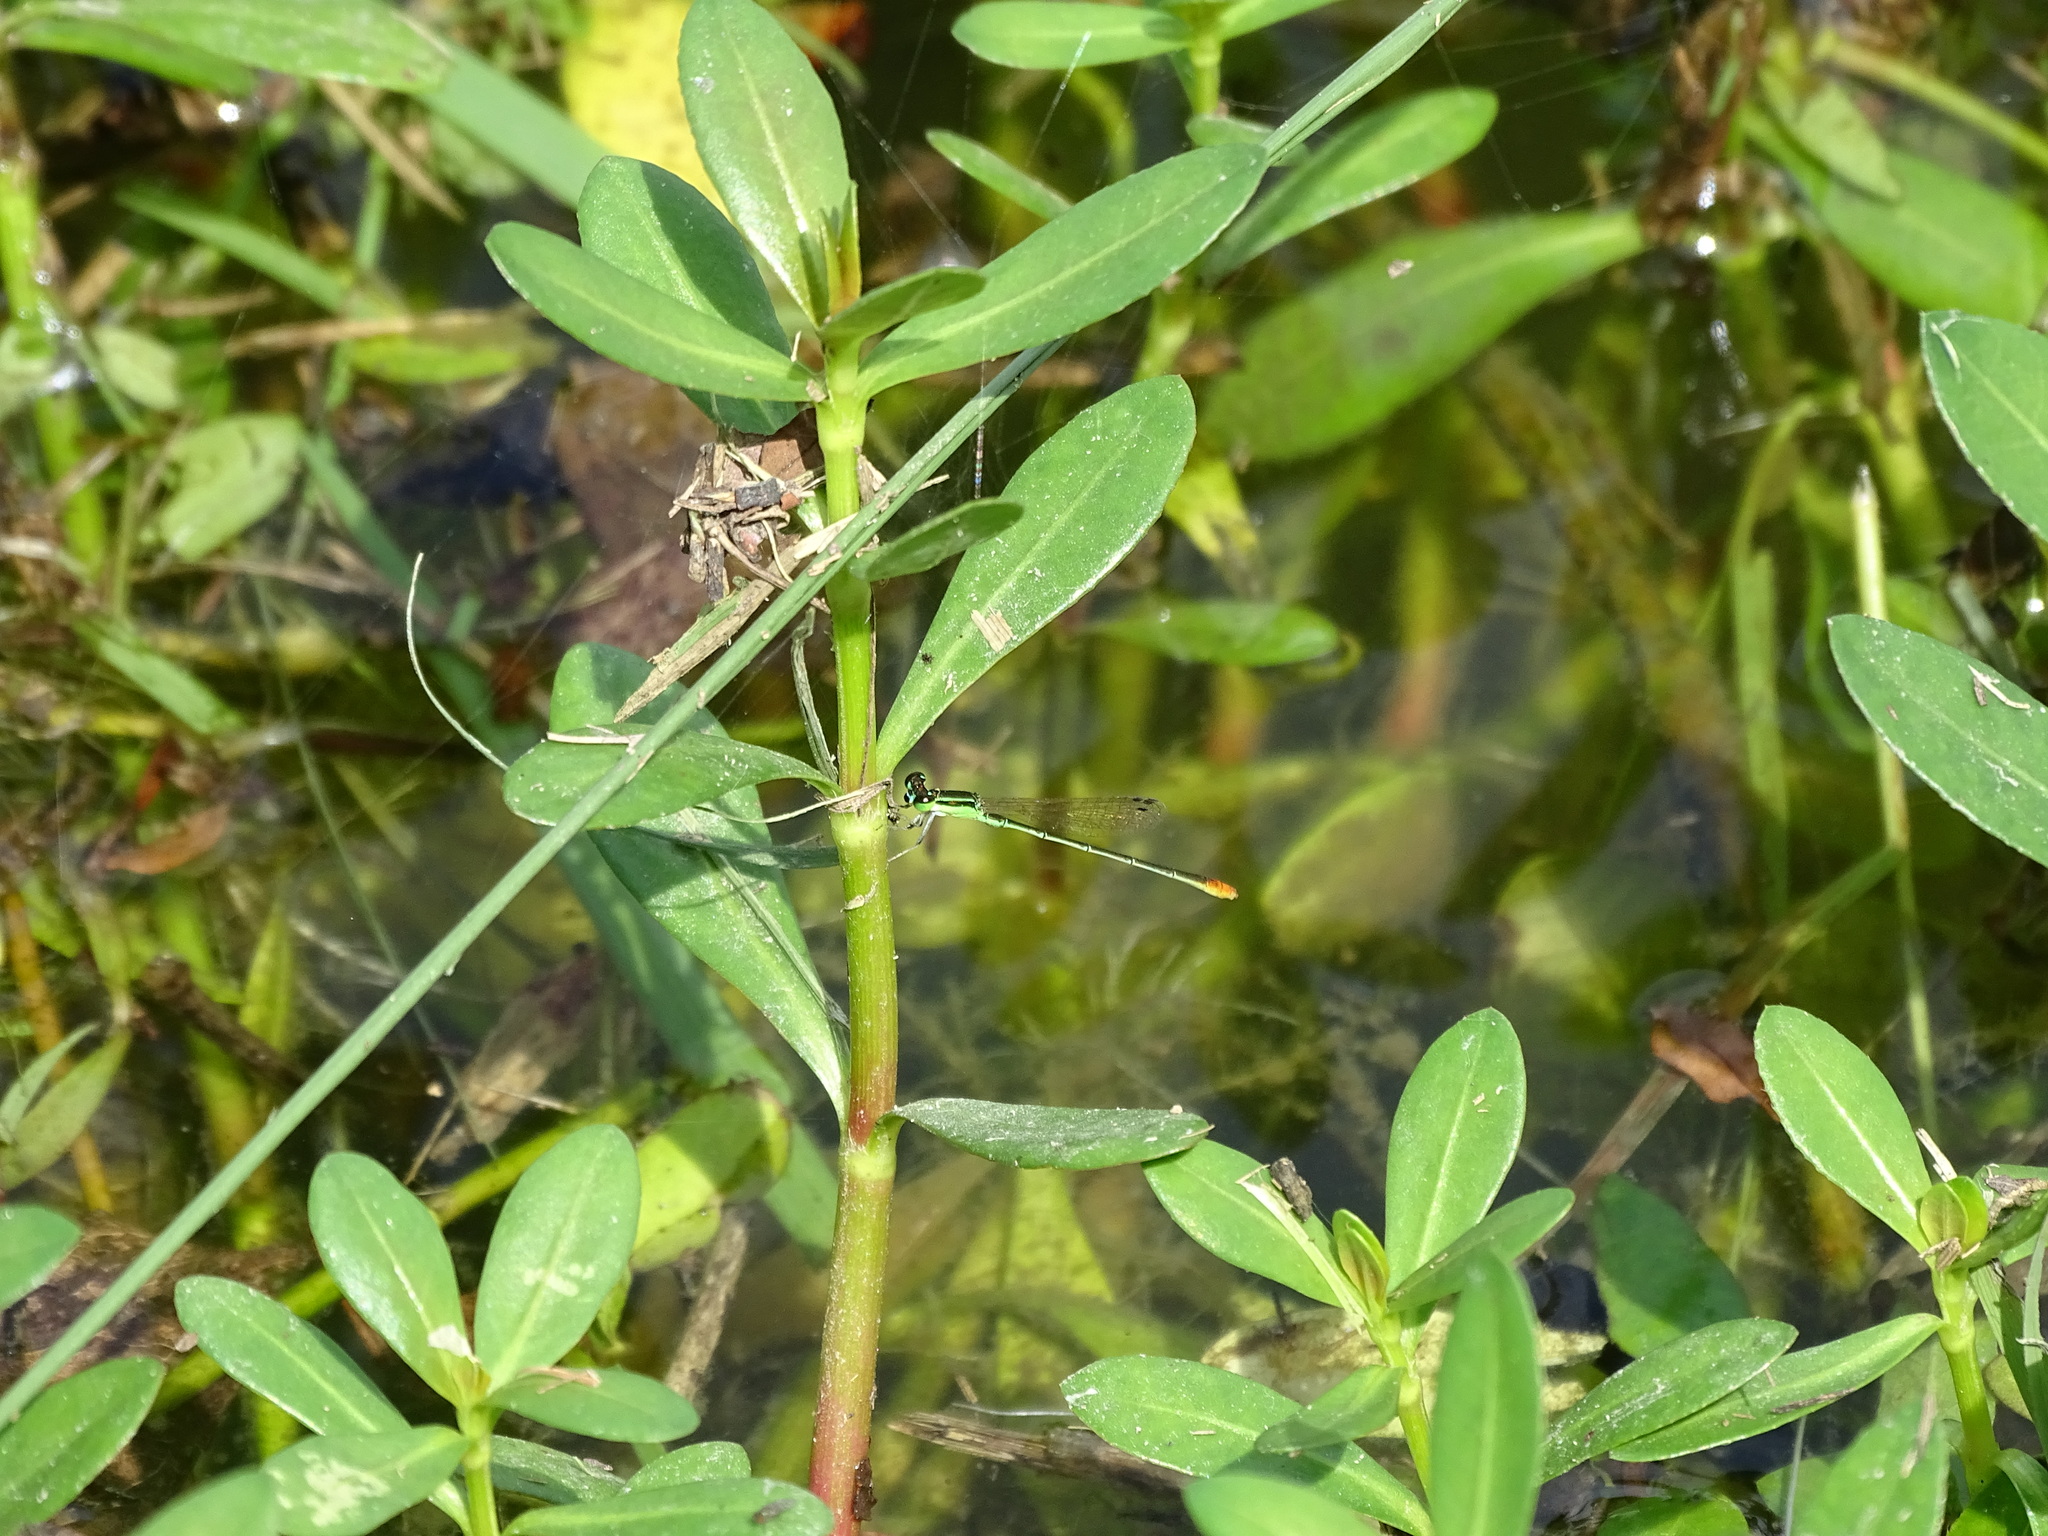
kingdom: Animalia
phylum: Arthropoda
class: Insecta
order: Odonata
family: Coenagrionidae
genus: Agriocnemis
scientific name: Agriocnemis pygmaea
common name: Pygmy wisp
